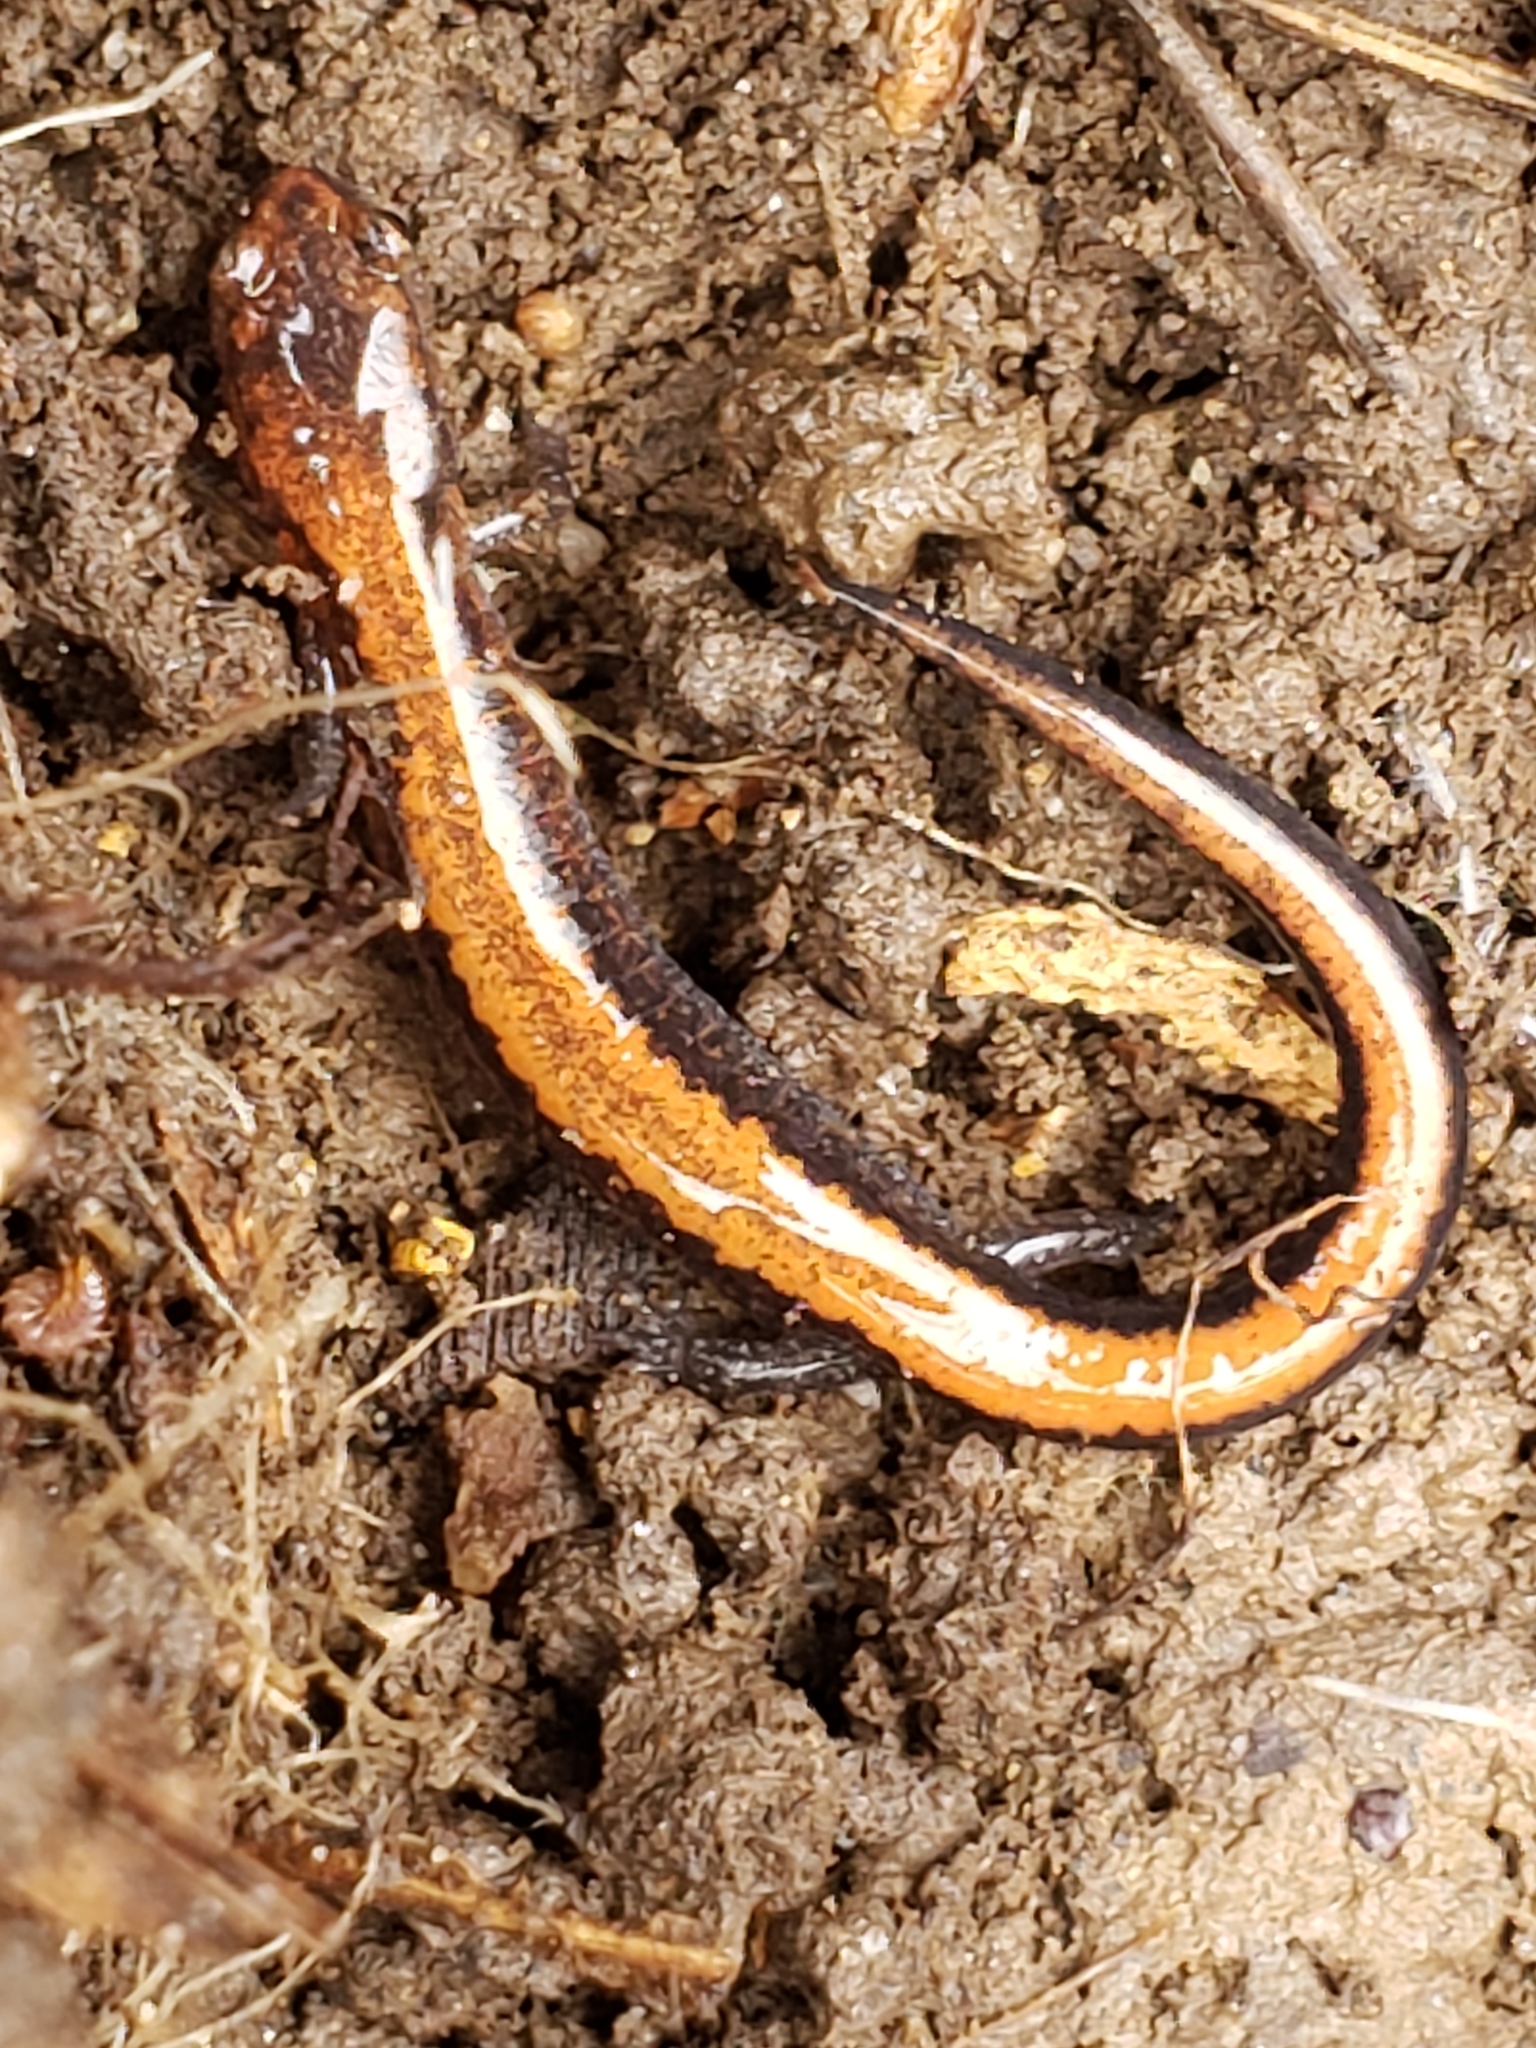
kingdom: Animalia
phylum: Chordata
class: Amphibia
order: Caudata
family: Plethodontidae
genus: Plethodon
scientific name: Plethodon cinereus
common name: Redback salamander
